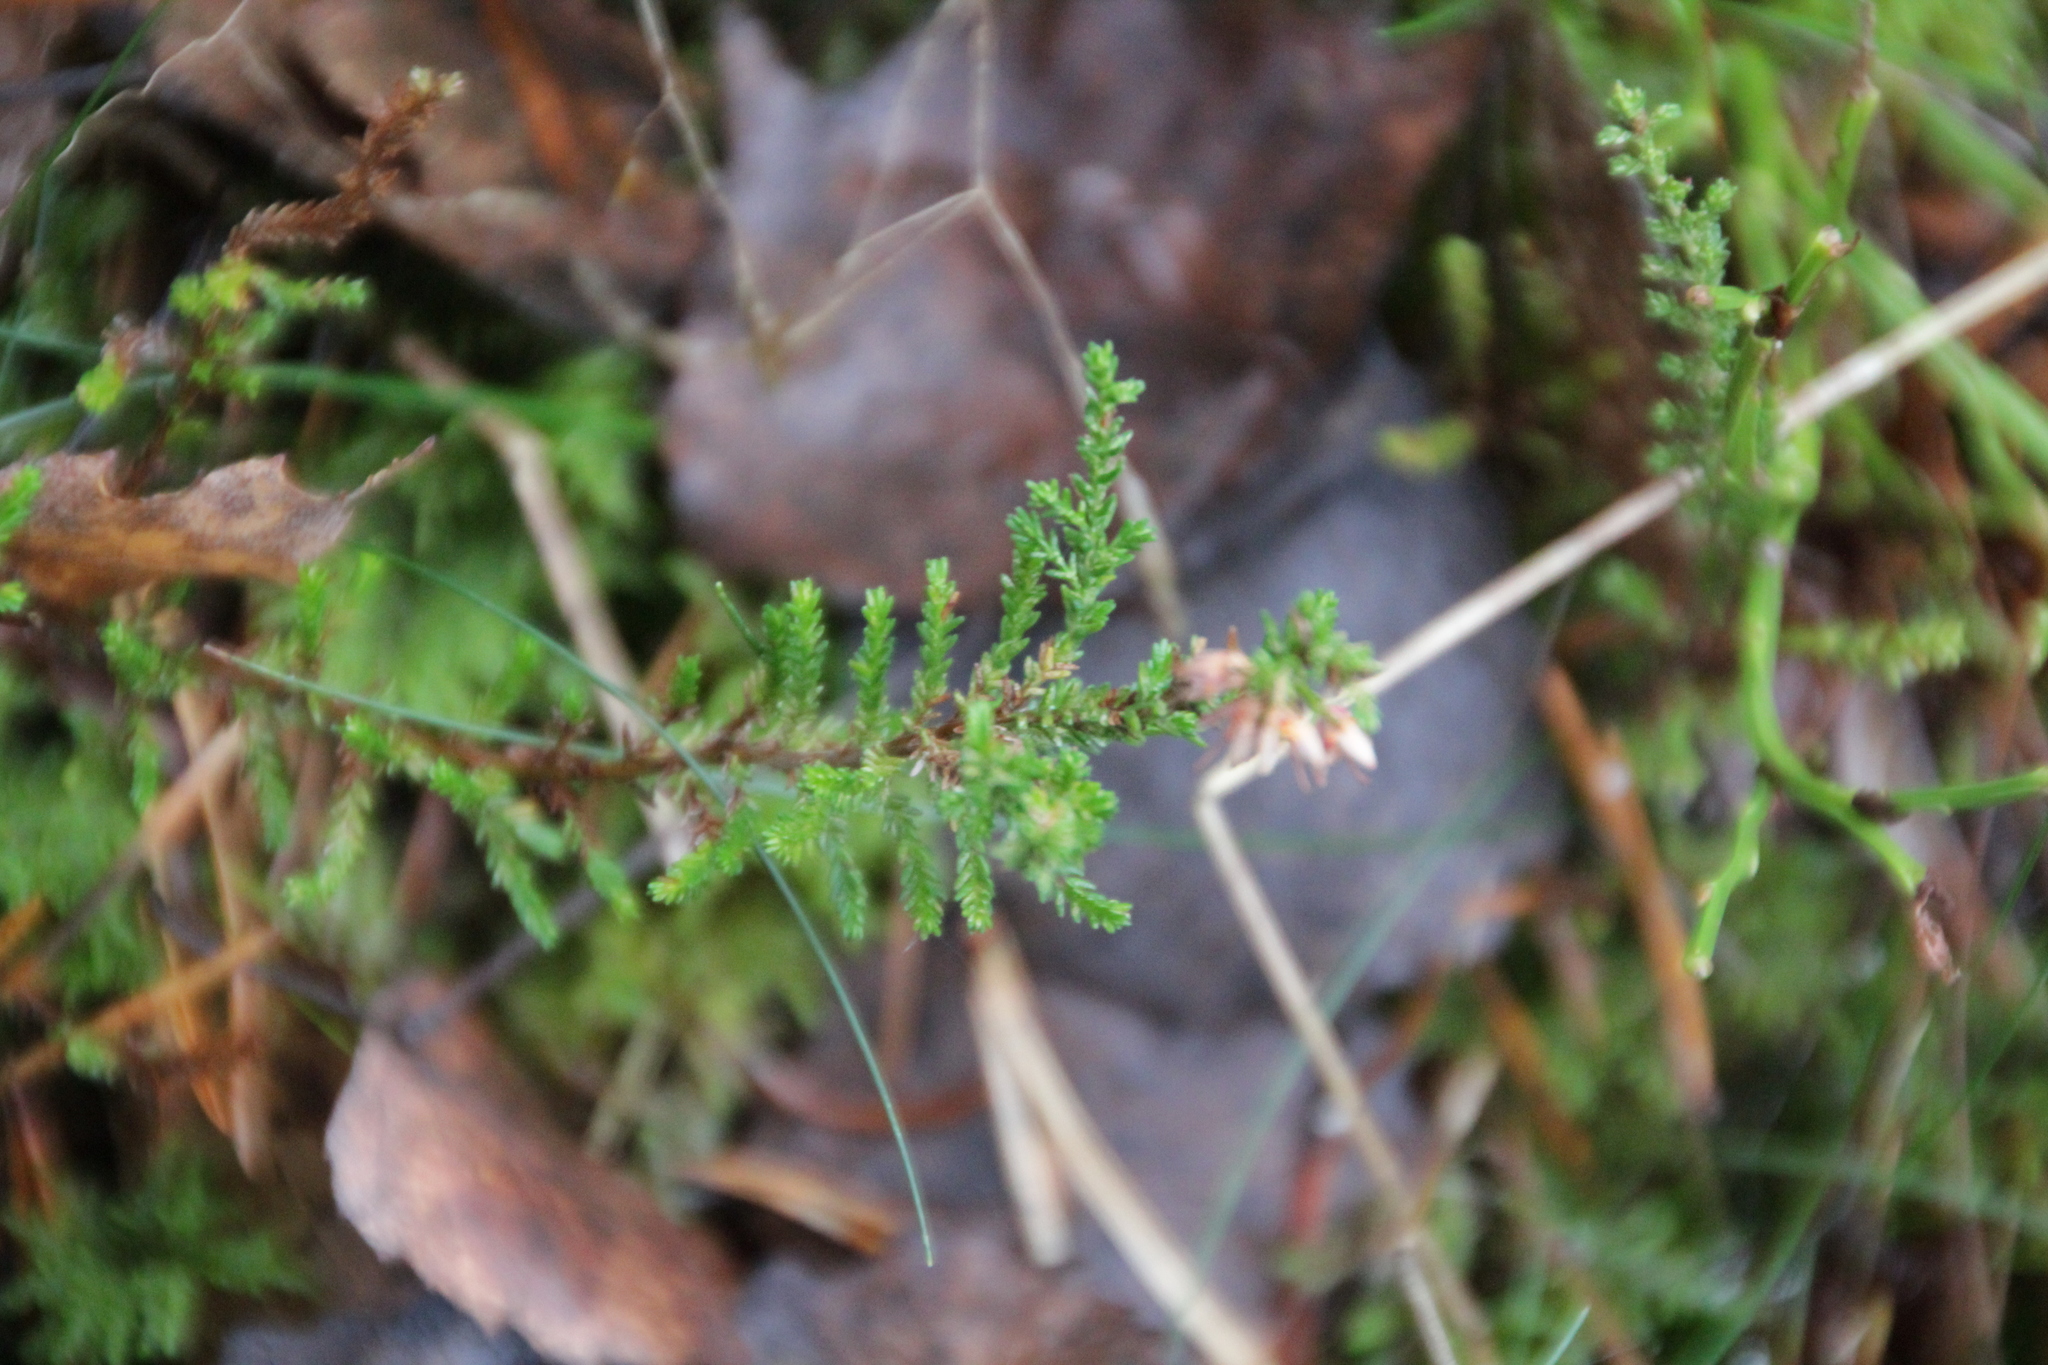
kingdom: Plantae
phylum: Tracheophyta
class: Magnoliopsida
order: Ericales
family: Ericaceae
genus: Calluna
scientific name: Calluna vulgaris
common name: Heather
